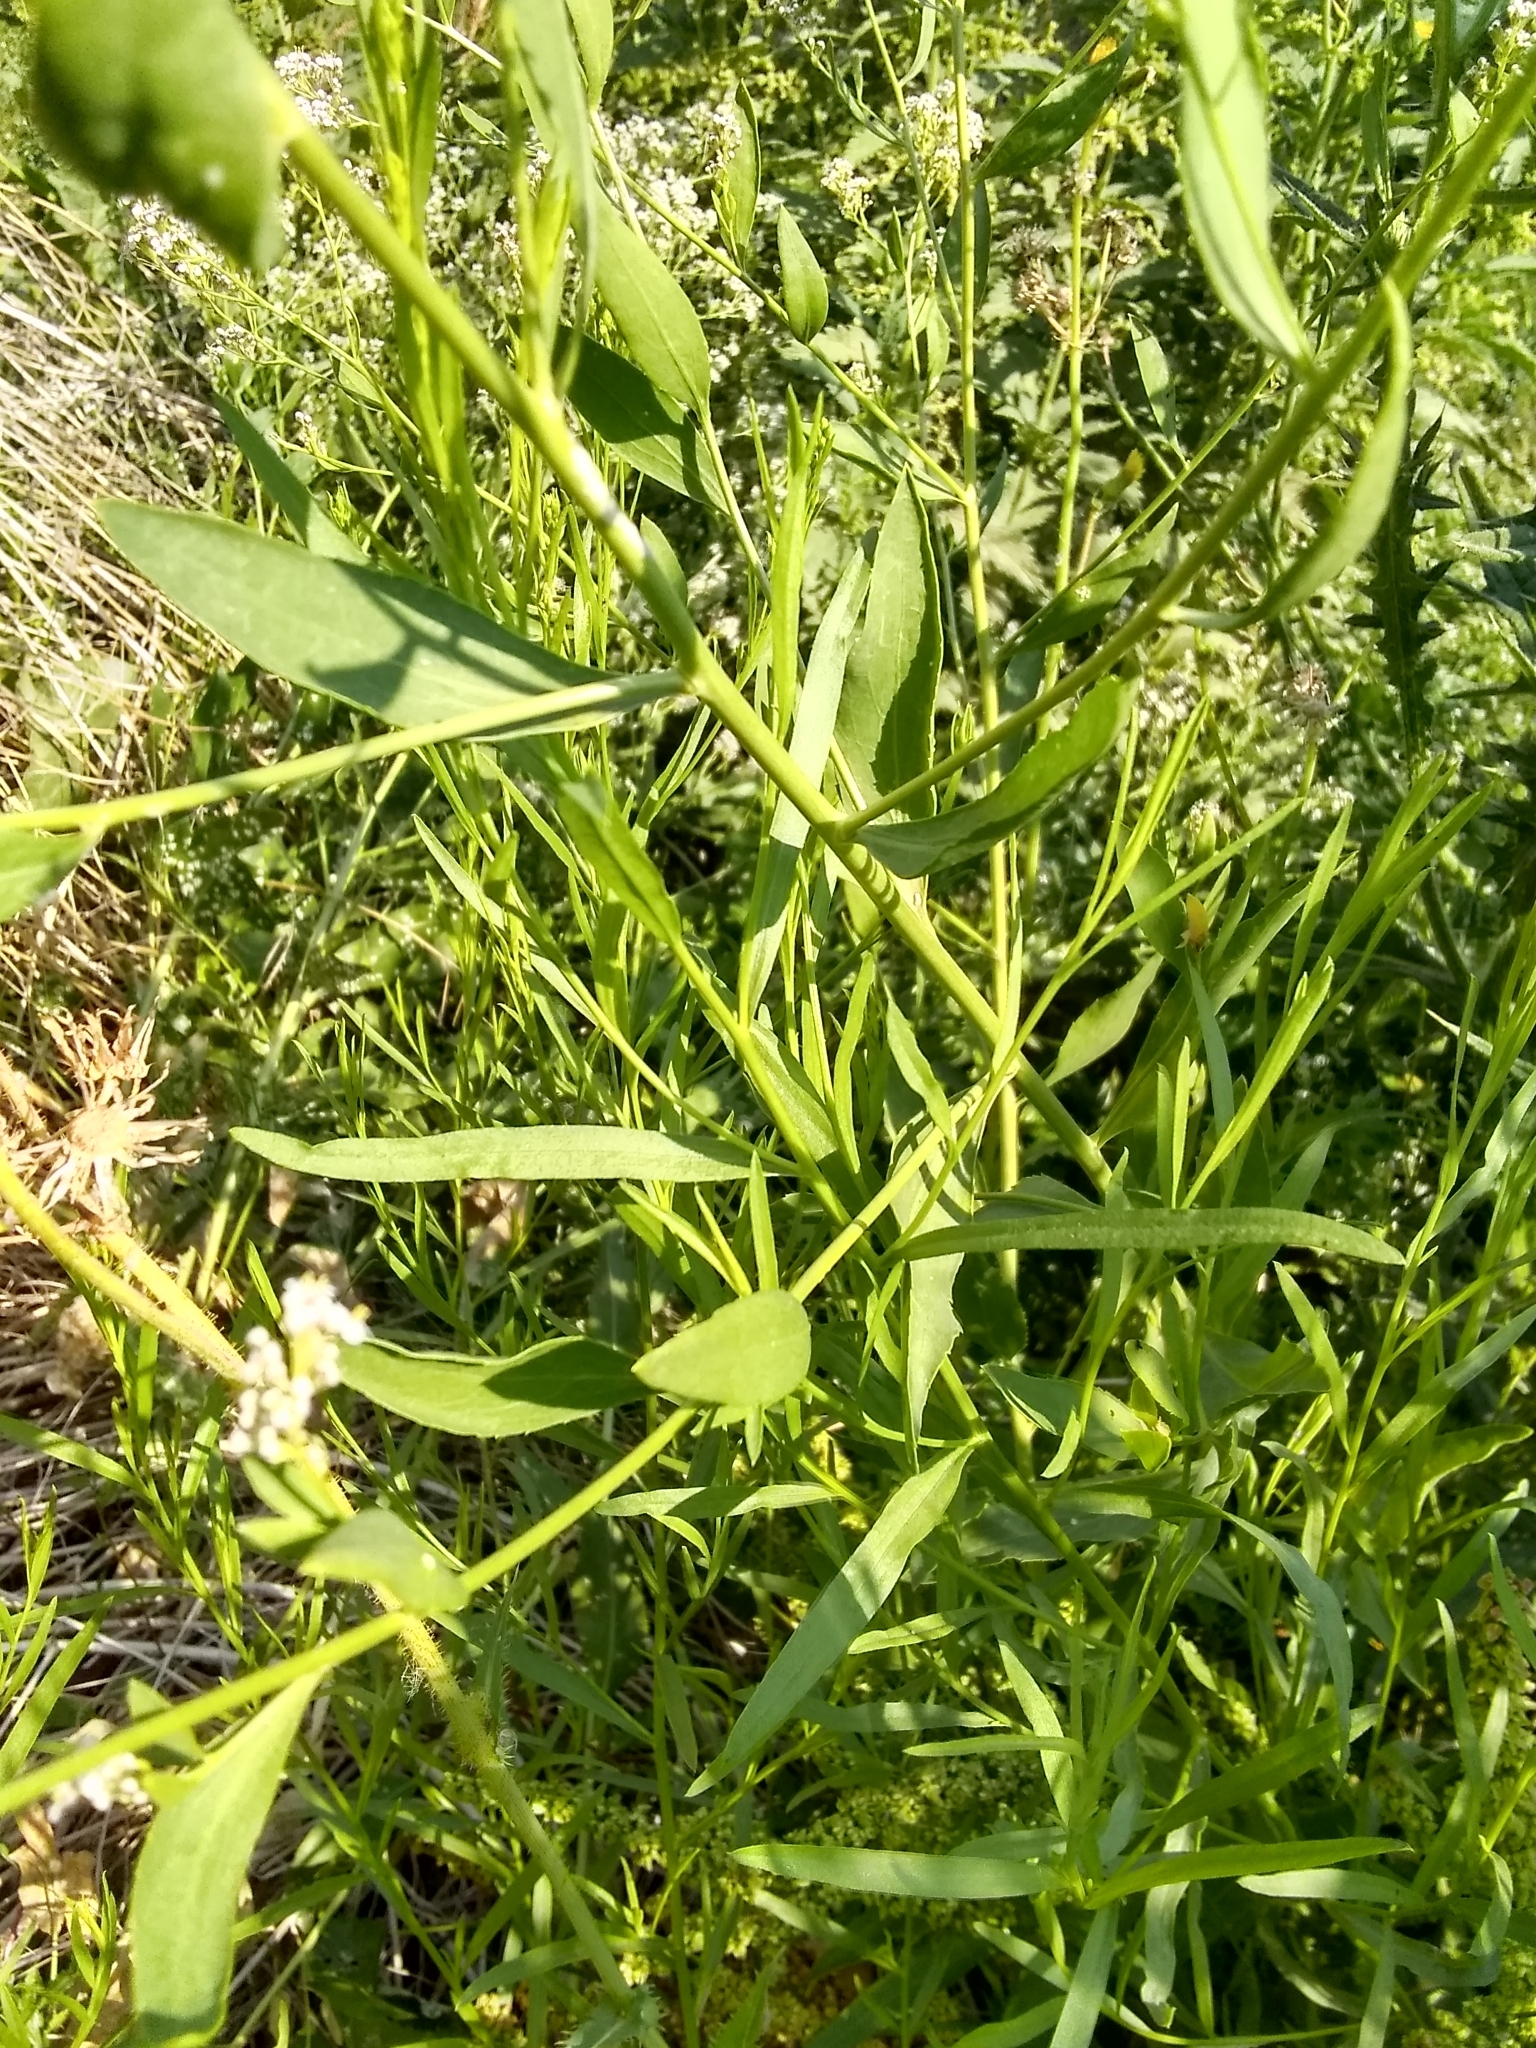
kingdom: Plantae
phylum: Tracheophyta
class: Magnoliopsida
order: Brassicales
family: Brassicaceae
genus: Lepidium
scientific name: Lepidium latifolium
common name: Dittander
